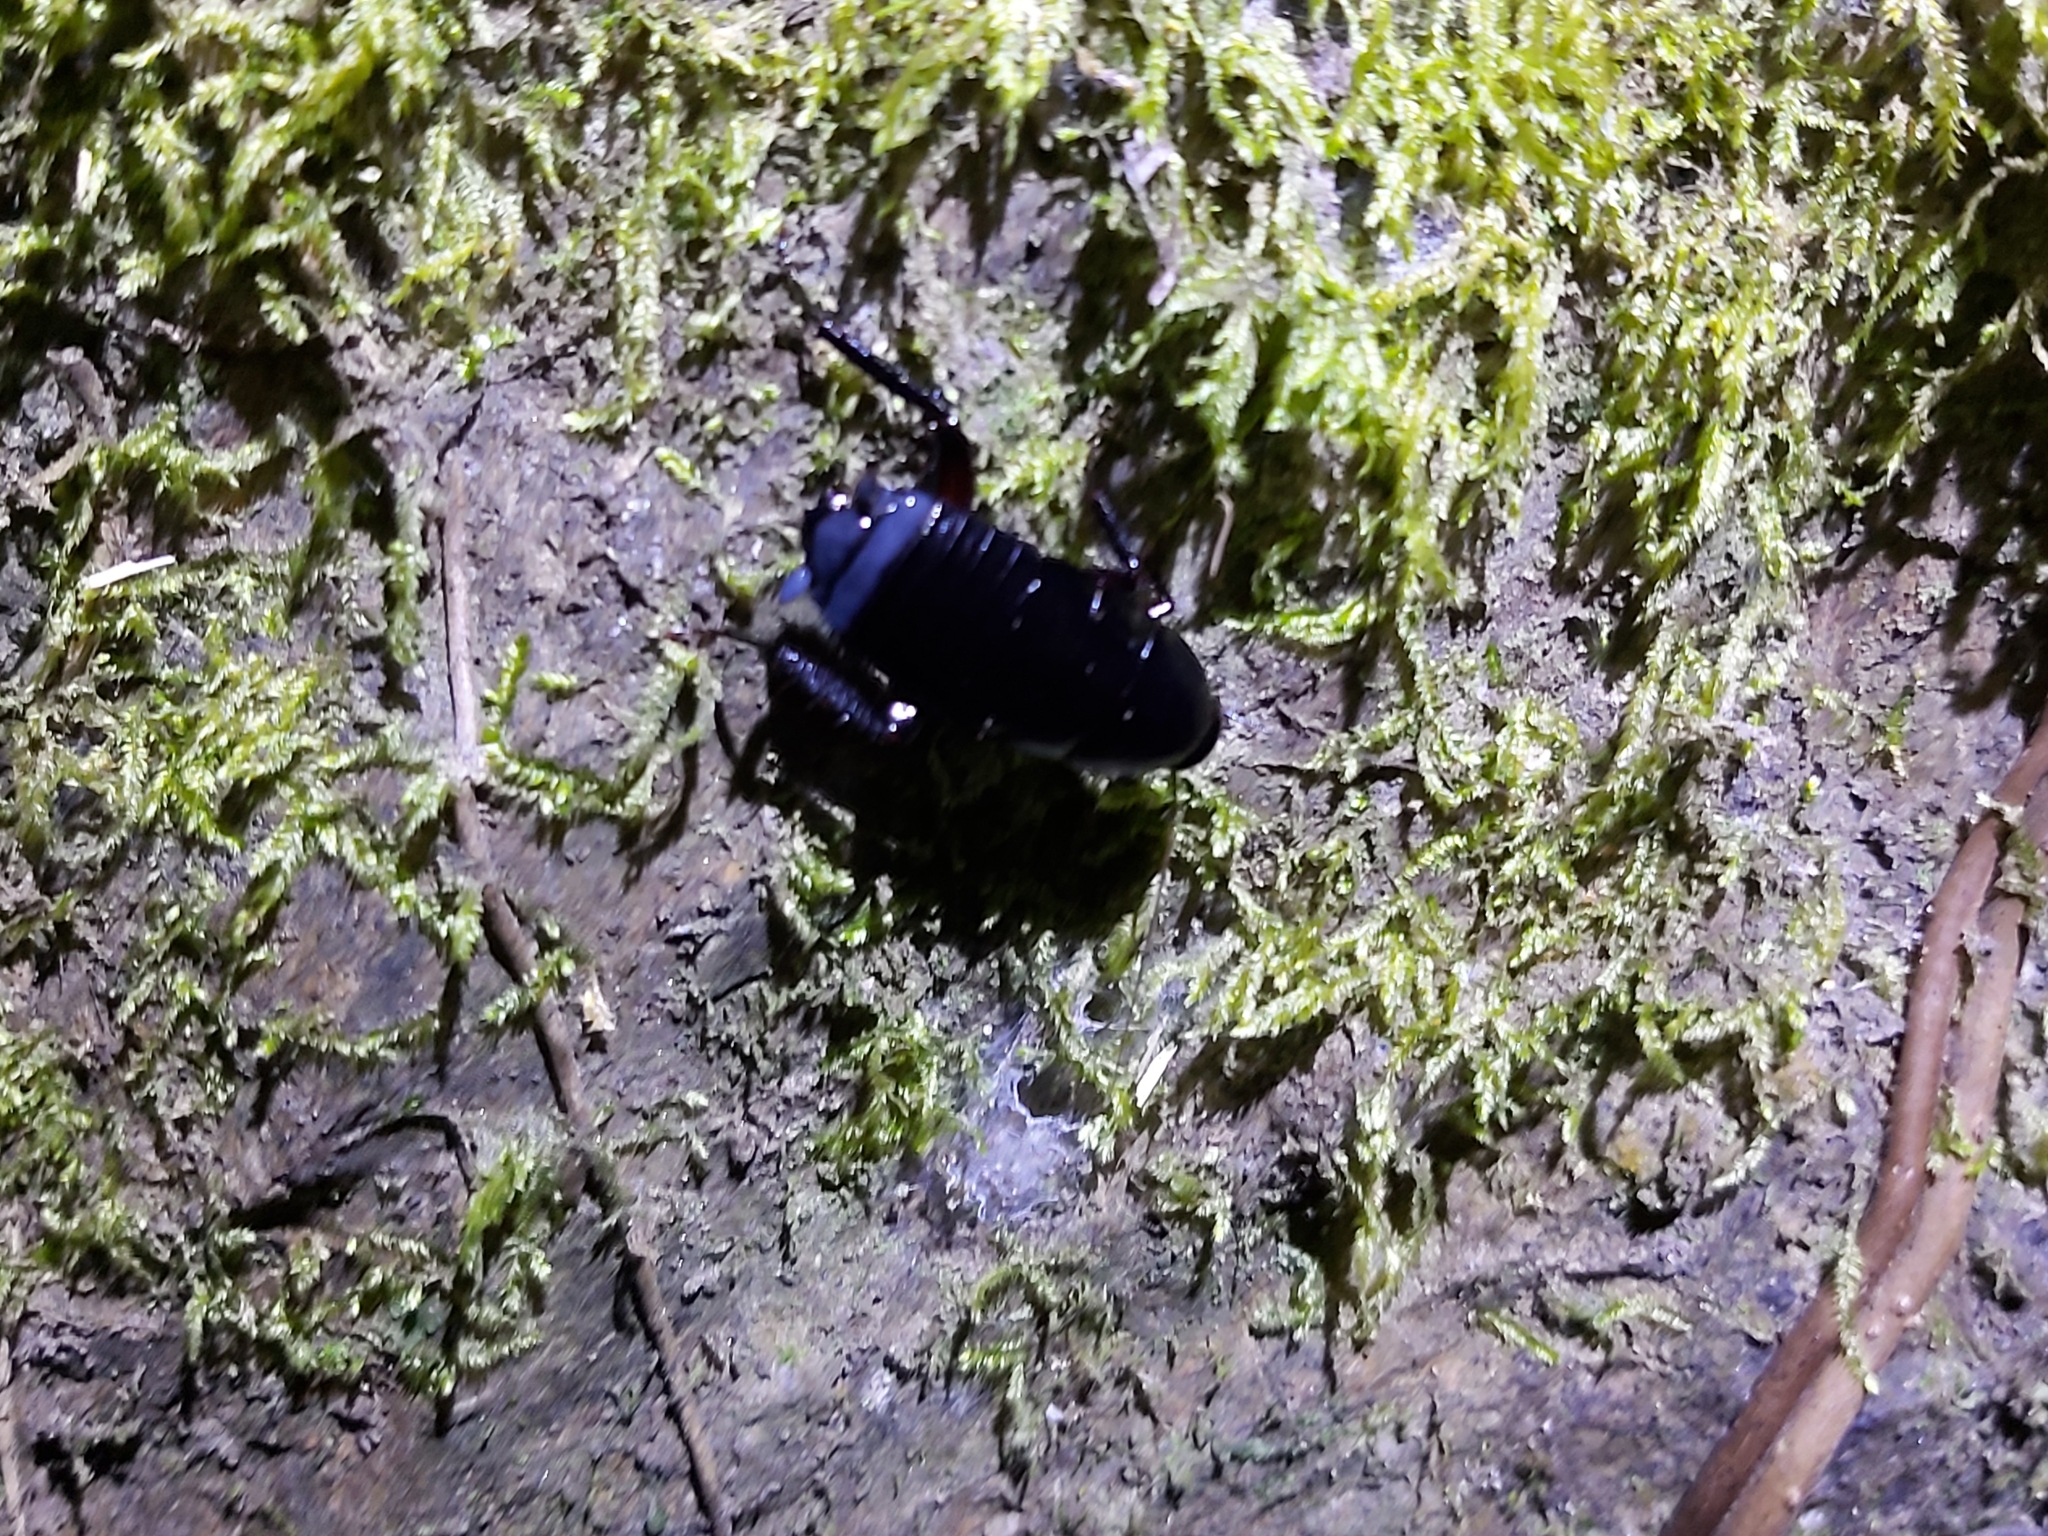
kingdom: Animalia
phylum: Arthropoda
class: Insecta
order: Blattodea
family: Blattidae
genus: Celatoblatta
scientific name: Celatoblatta
